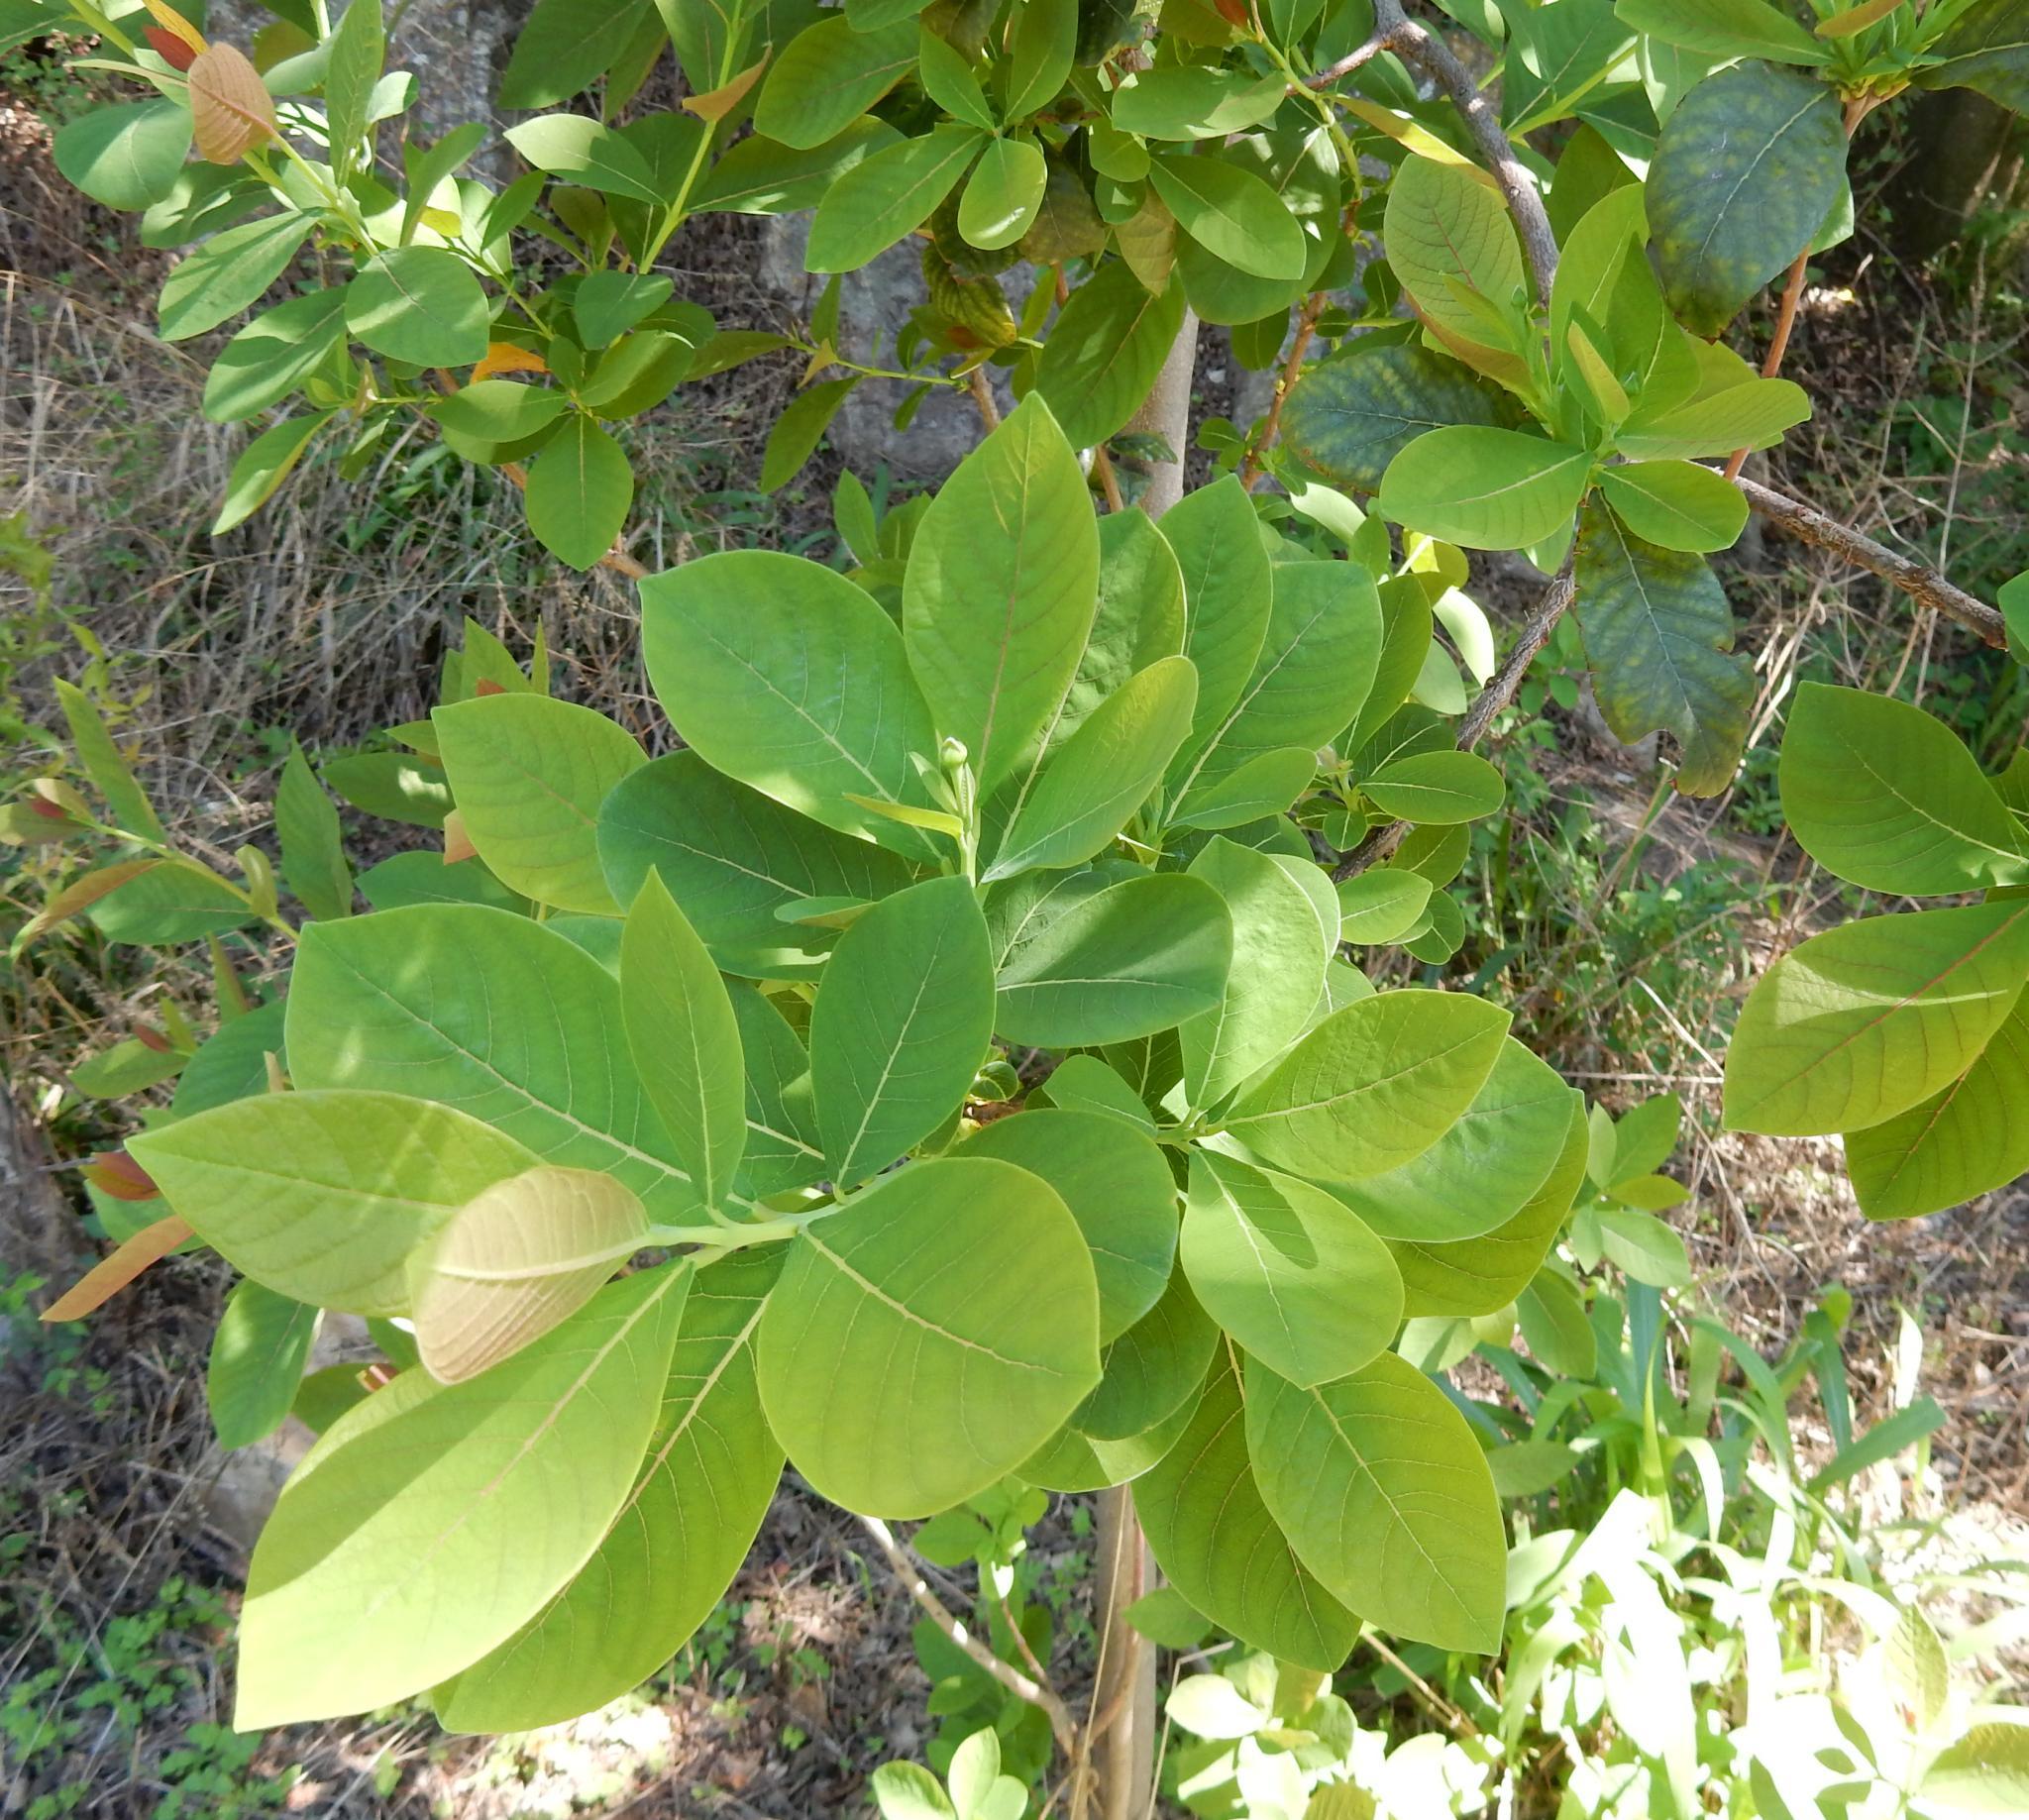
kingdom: Plantae
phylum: Tracheophyta
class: Magnoliopsida
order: Malvales
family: Thymelaeaceae
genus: Dais
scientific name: Dais cotinifolia
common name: Pompon tree
